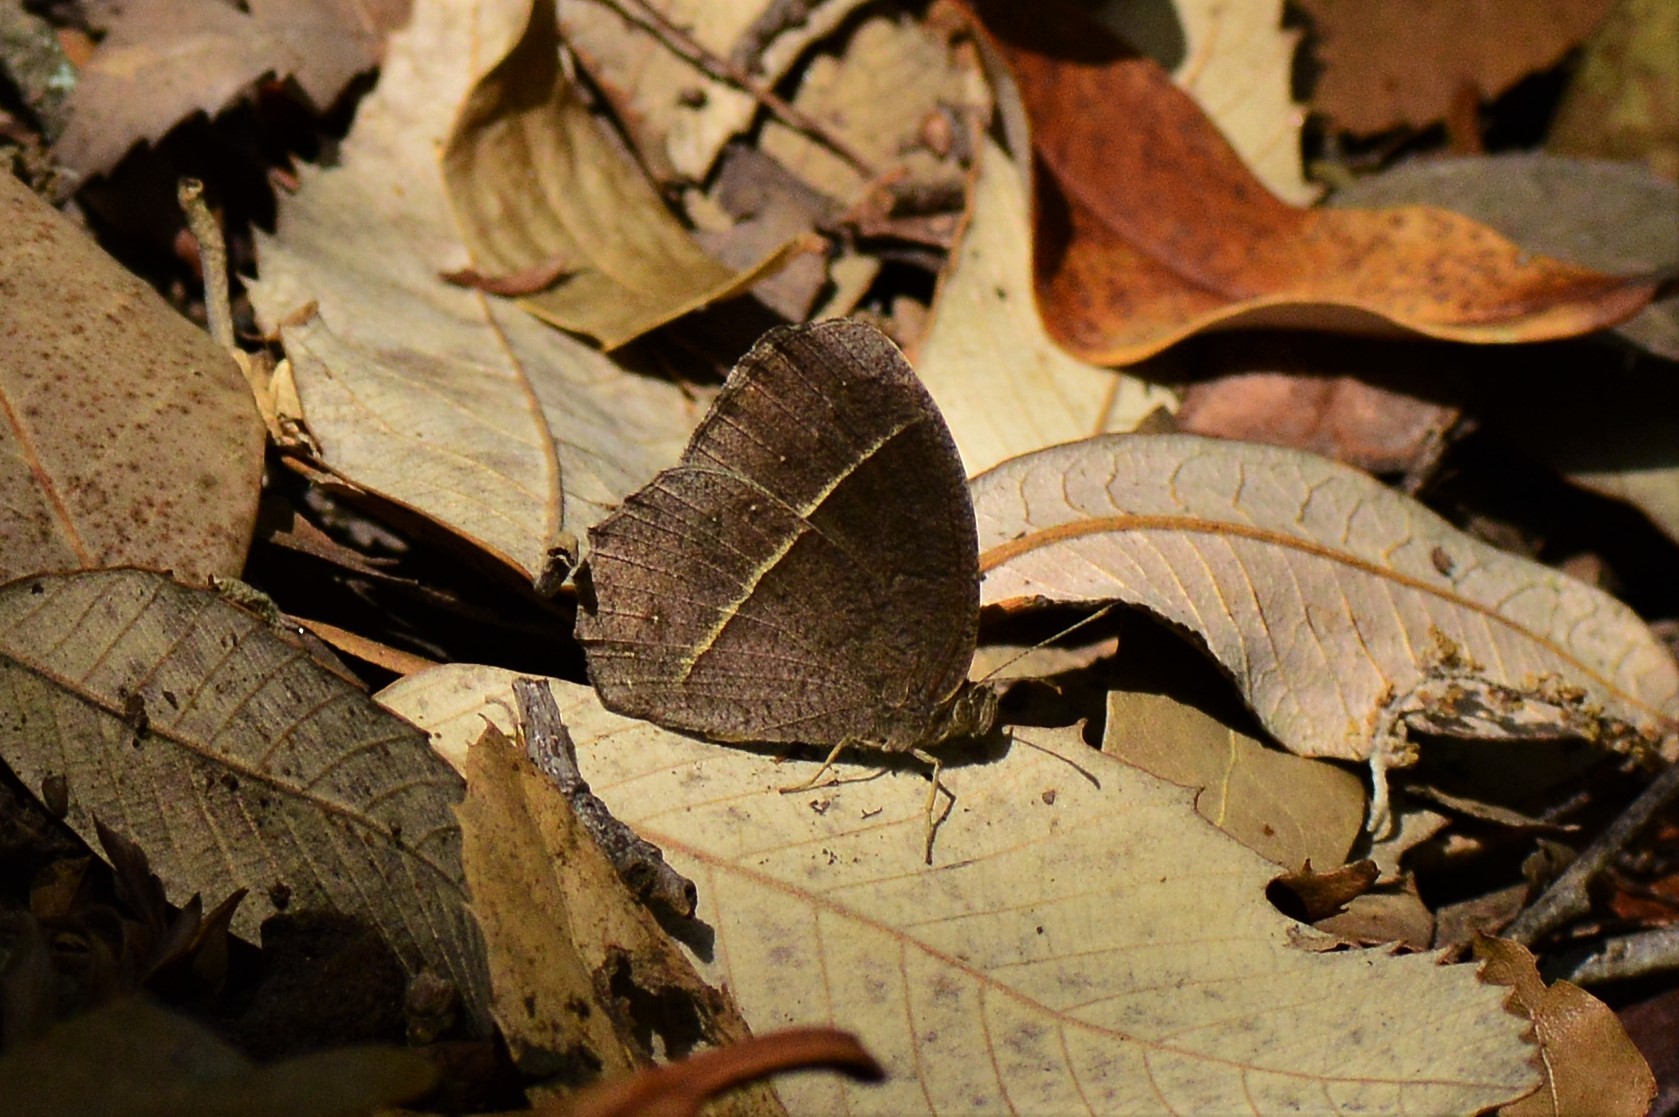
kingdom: Animalia
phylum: Arthropoda
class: Insecta
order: Lepidoptera
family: Nymphalidae
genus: Mycalesis
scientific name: Mycalesis Telinga spec
